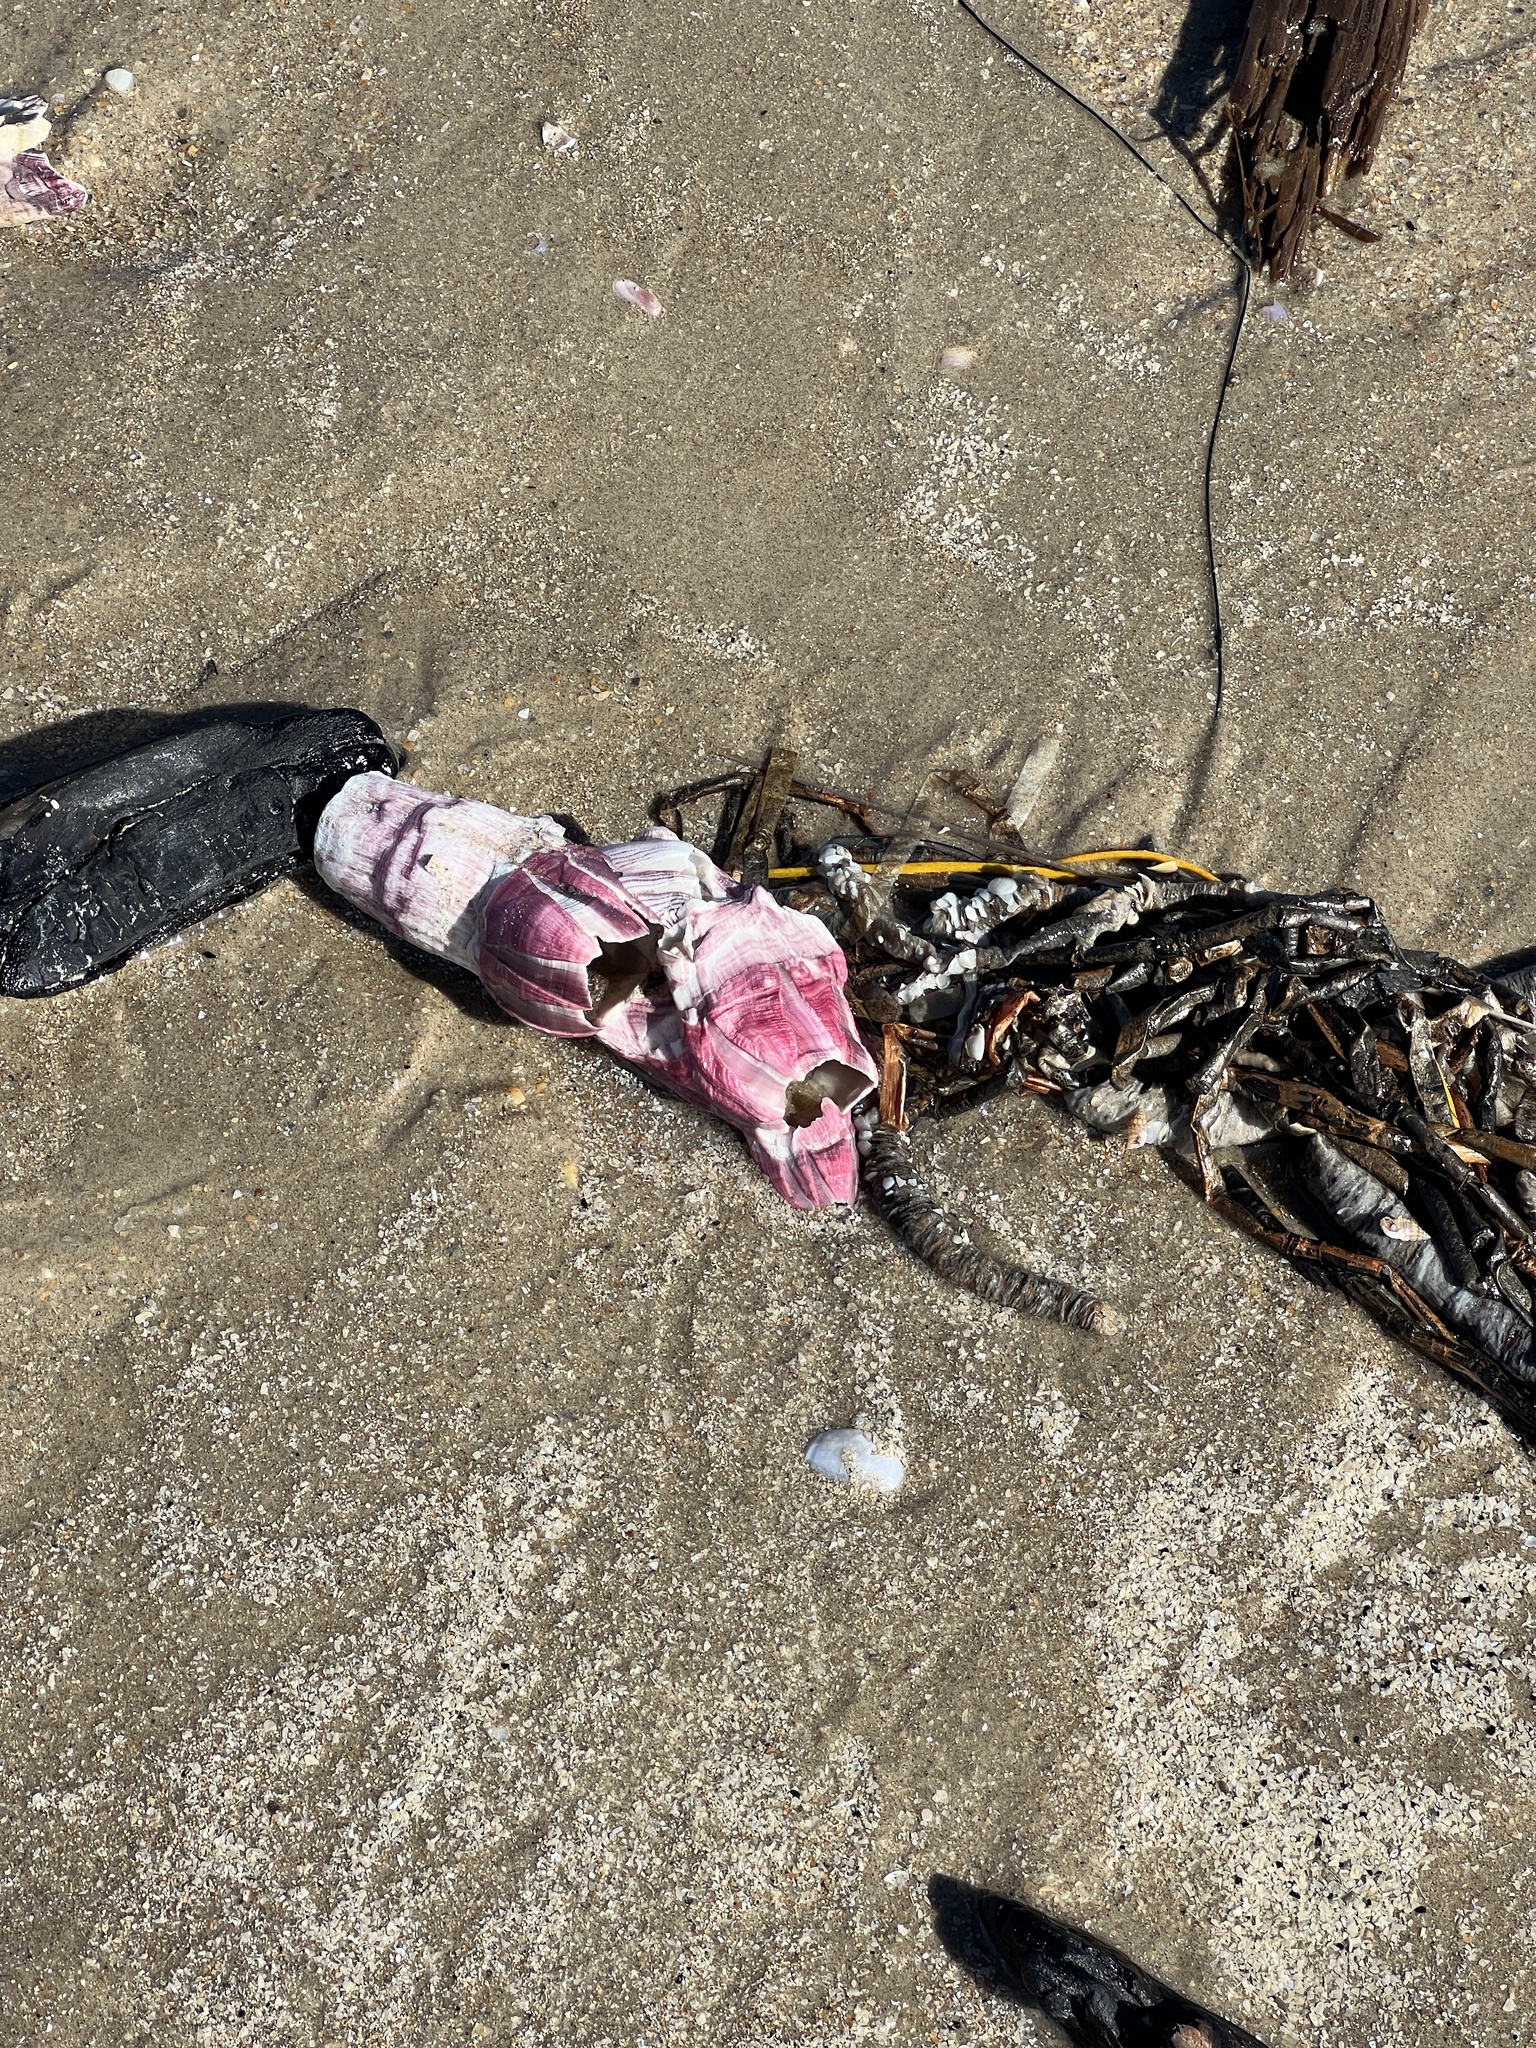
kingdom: Animalia
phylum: Arthropoda
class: Maxillopoda
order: Sessilia
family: Balanidae
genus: Megabalanus
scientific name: Megabalanus tintinnabulum
